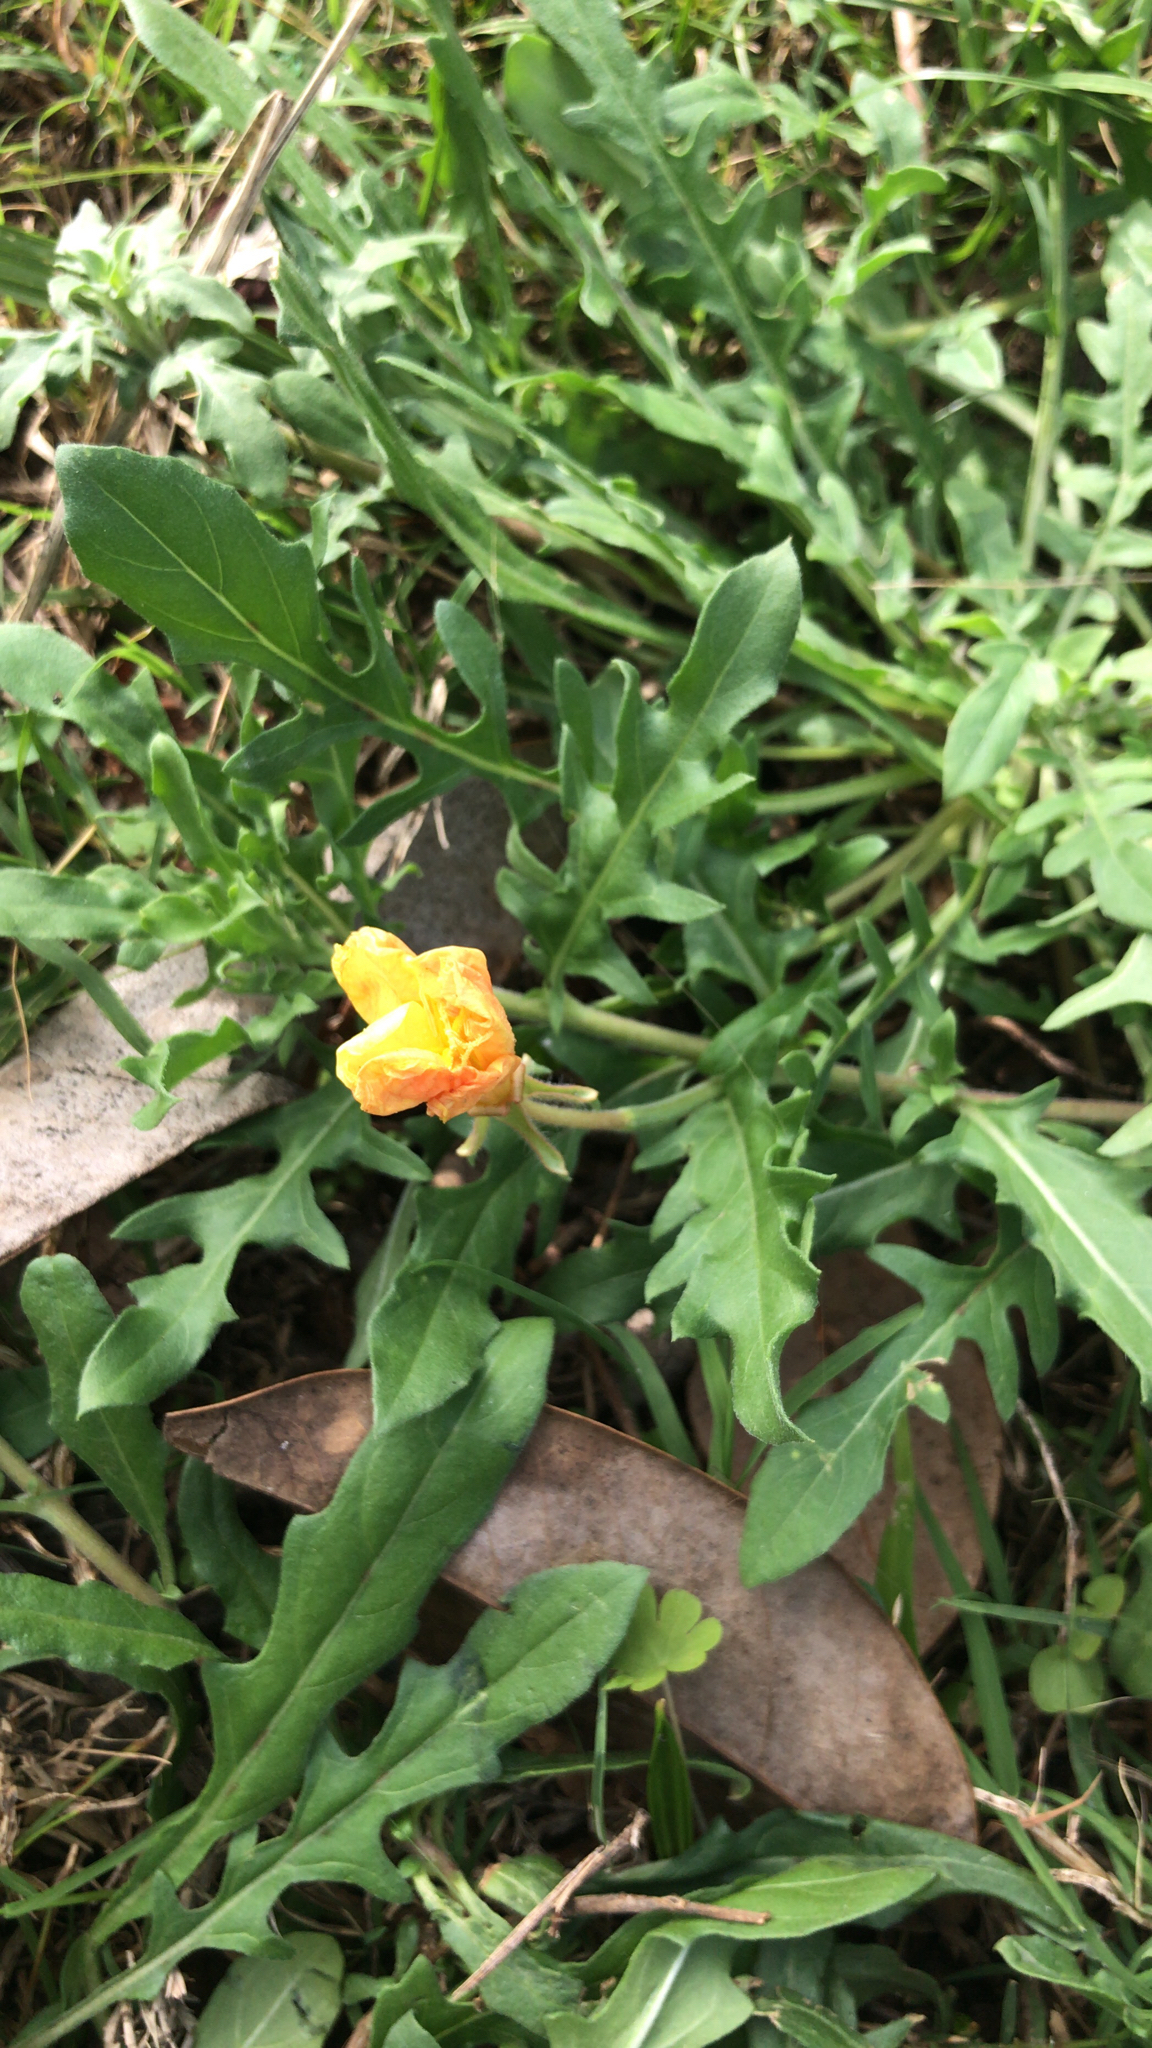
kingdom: Plantae
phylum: Tracheophyta
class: Magnoliopsida
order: Myrtales
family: Onagraceae
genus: Oenothera
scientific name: Oenothera laciniata
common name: Cut-leaved evening-primrose
